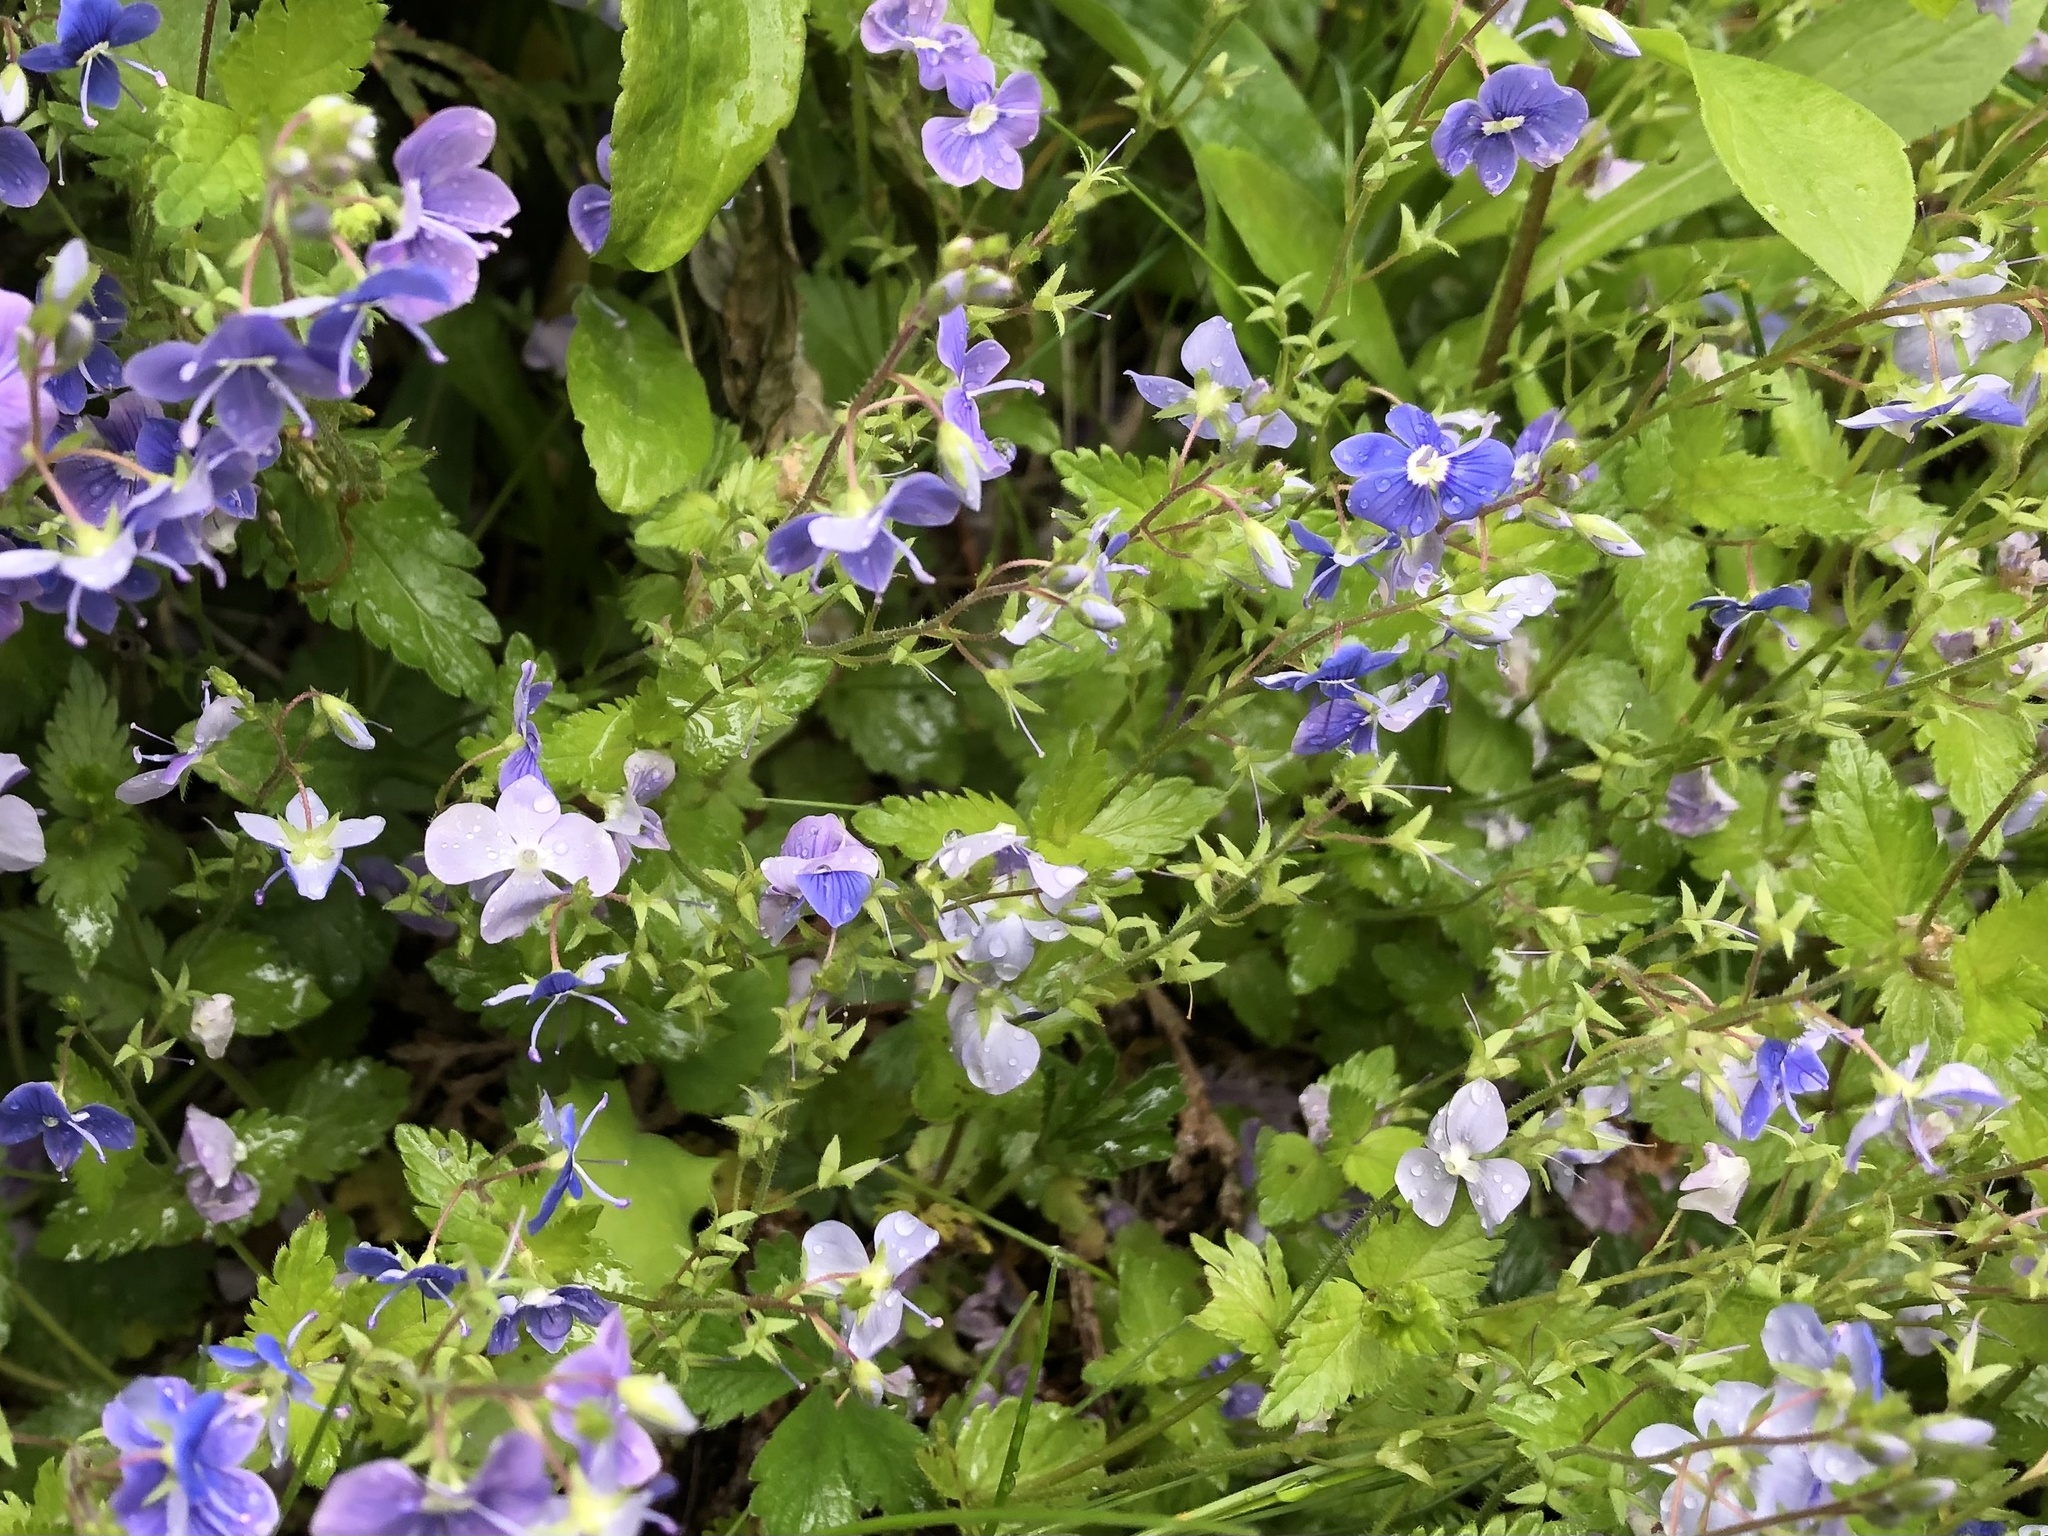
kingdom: Plantae
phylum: Tracheophyta
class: Magnoliopsida
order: Lamiales
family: Plantaginaceae
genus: Veronica
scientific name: Veronica chamaedrys
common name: Germander speedwell
